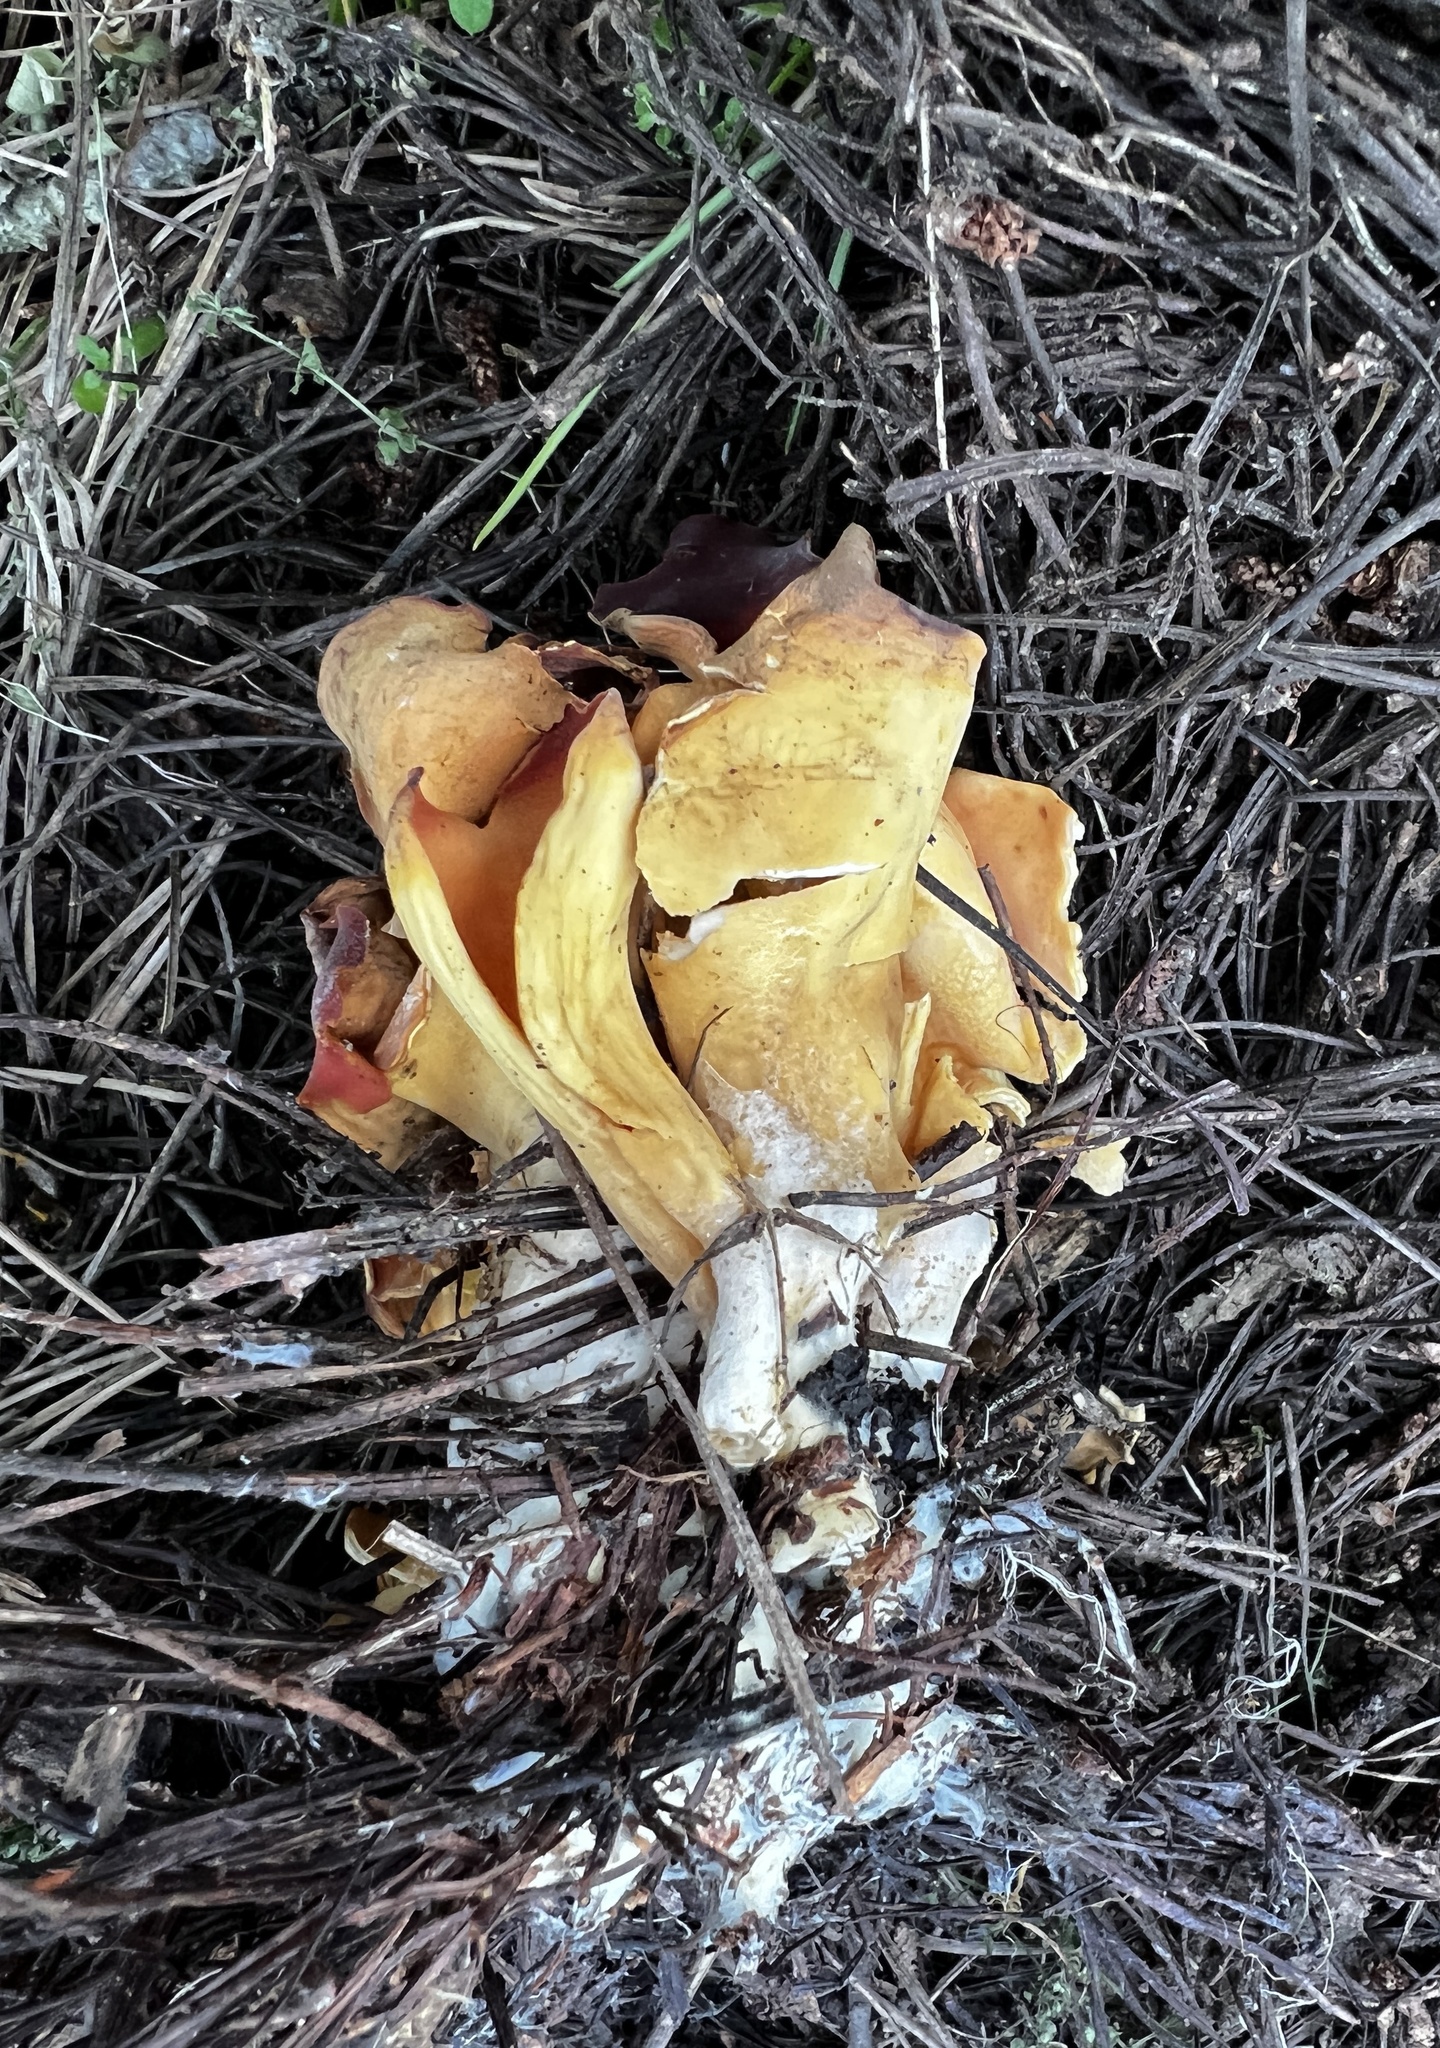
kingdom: Fungi
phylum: Ascomycota
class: Pezizomycetes
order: Pezizales
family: Otideaceae
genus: Otidea
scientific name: Otidea subformicarum
